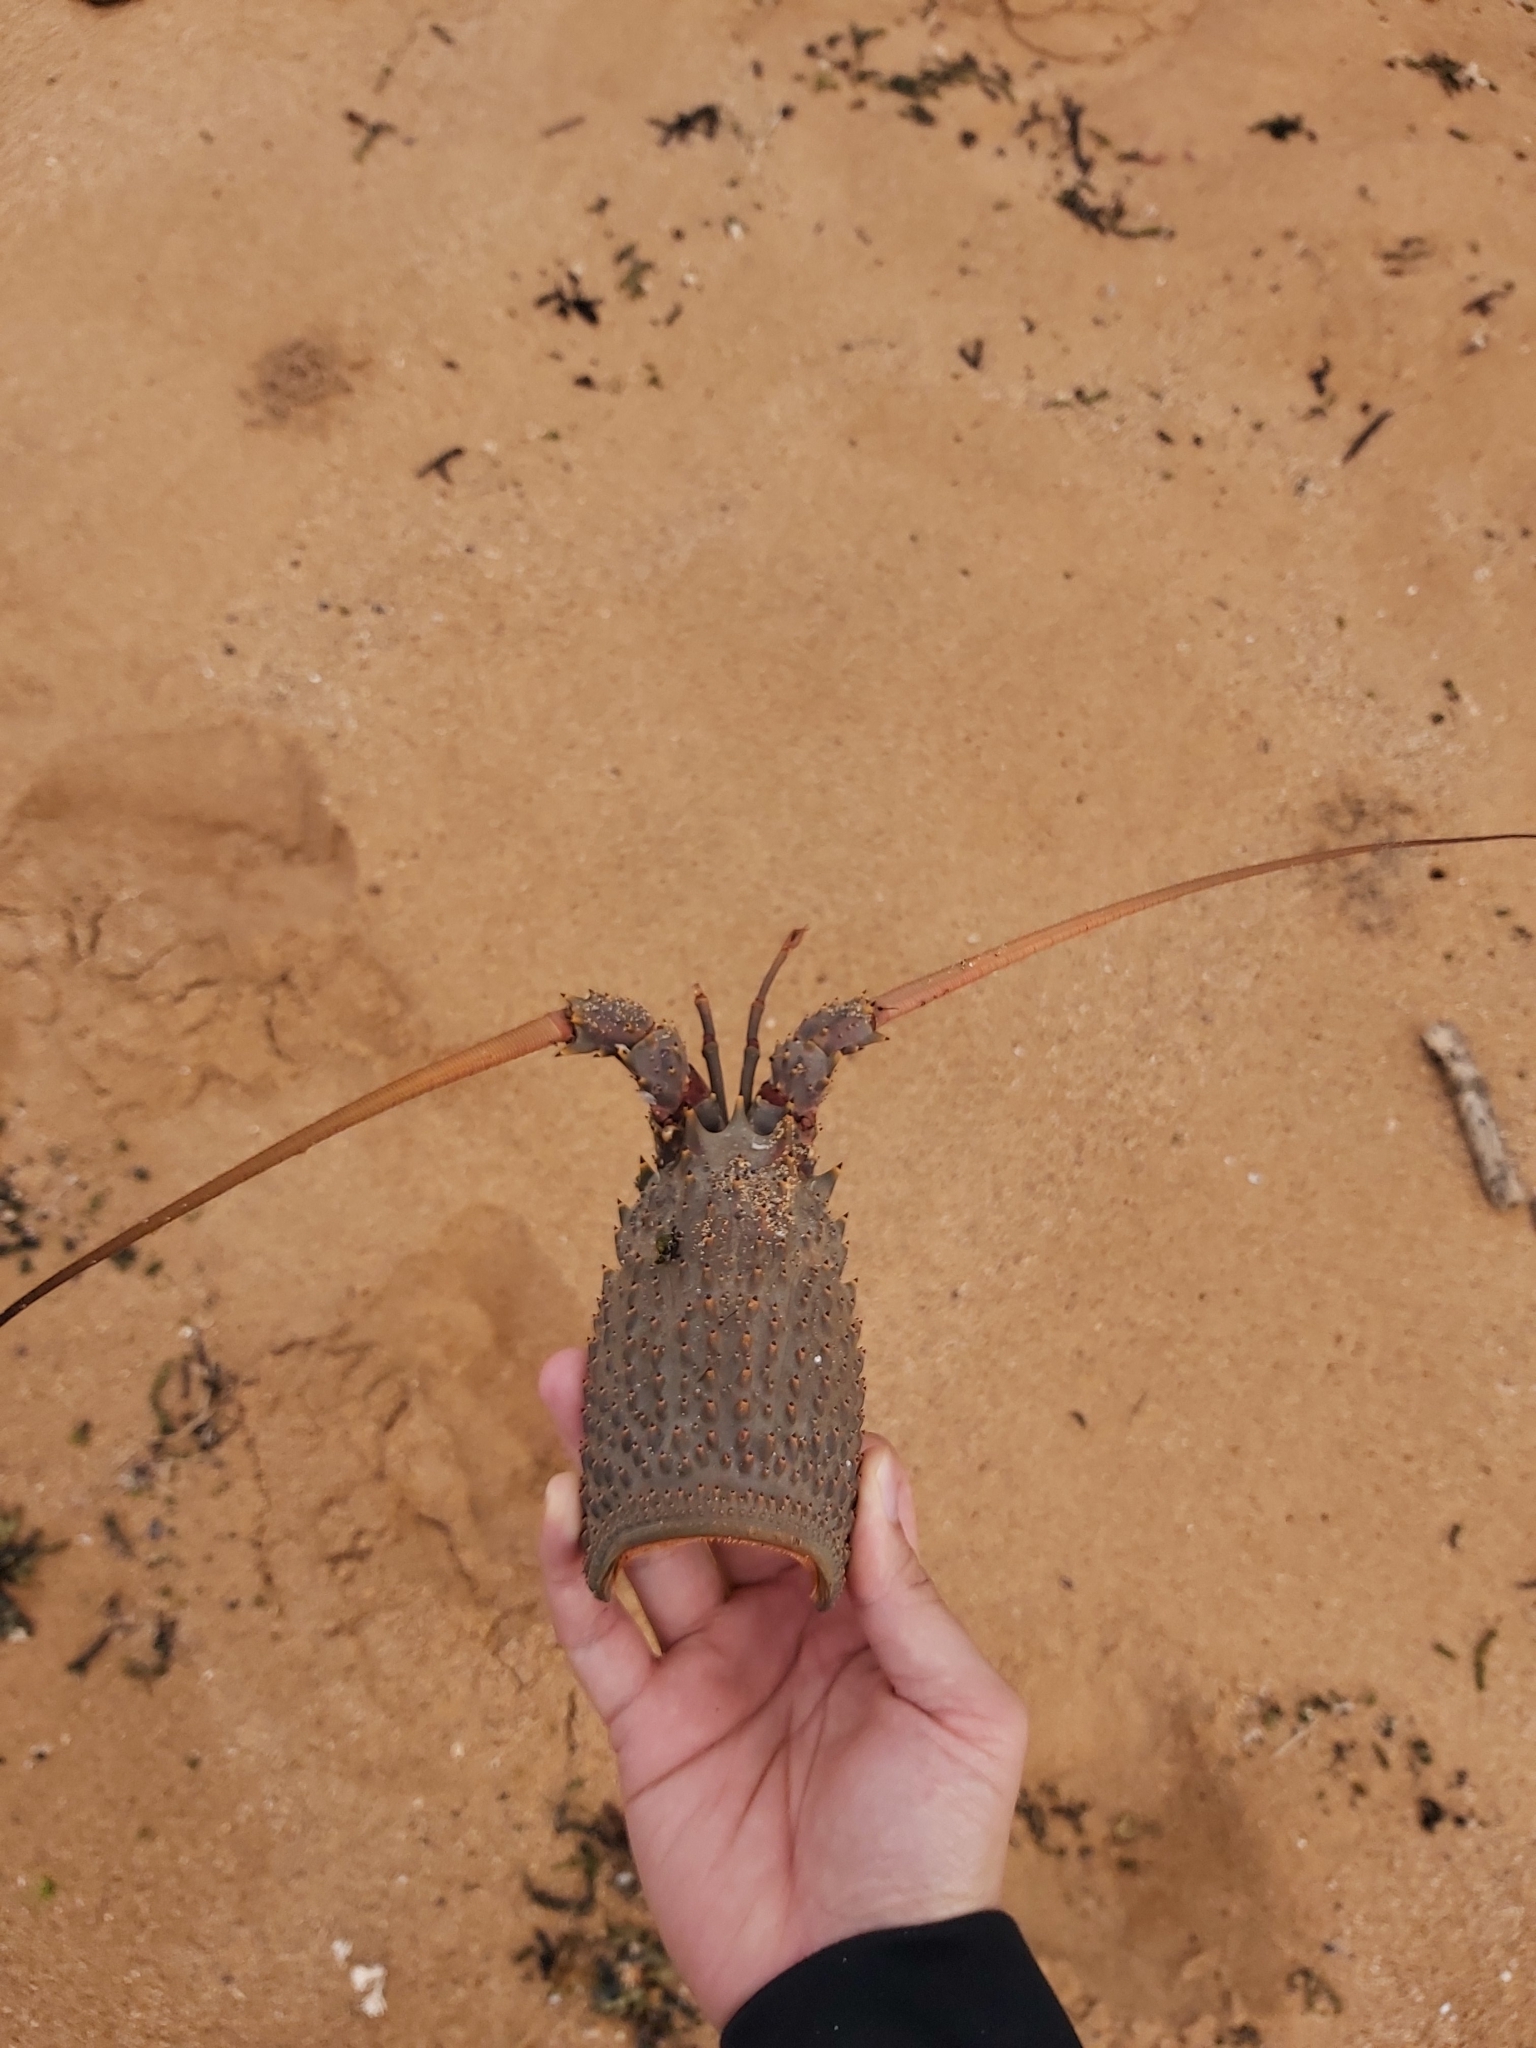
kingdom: Animalia
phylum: Arthropoda
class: Malacostraca
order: Decapoda
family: Palinuridae
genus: Sagmariasus
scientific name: Sagmariasus verreauxi
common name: Green rock lobster
